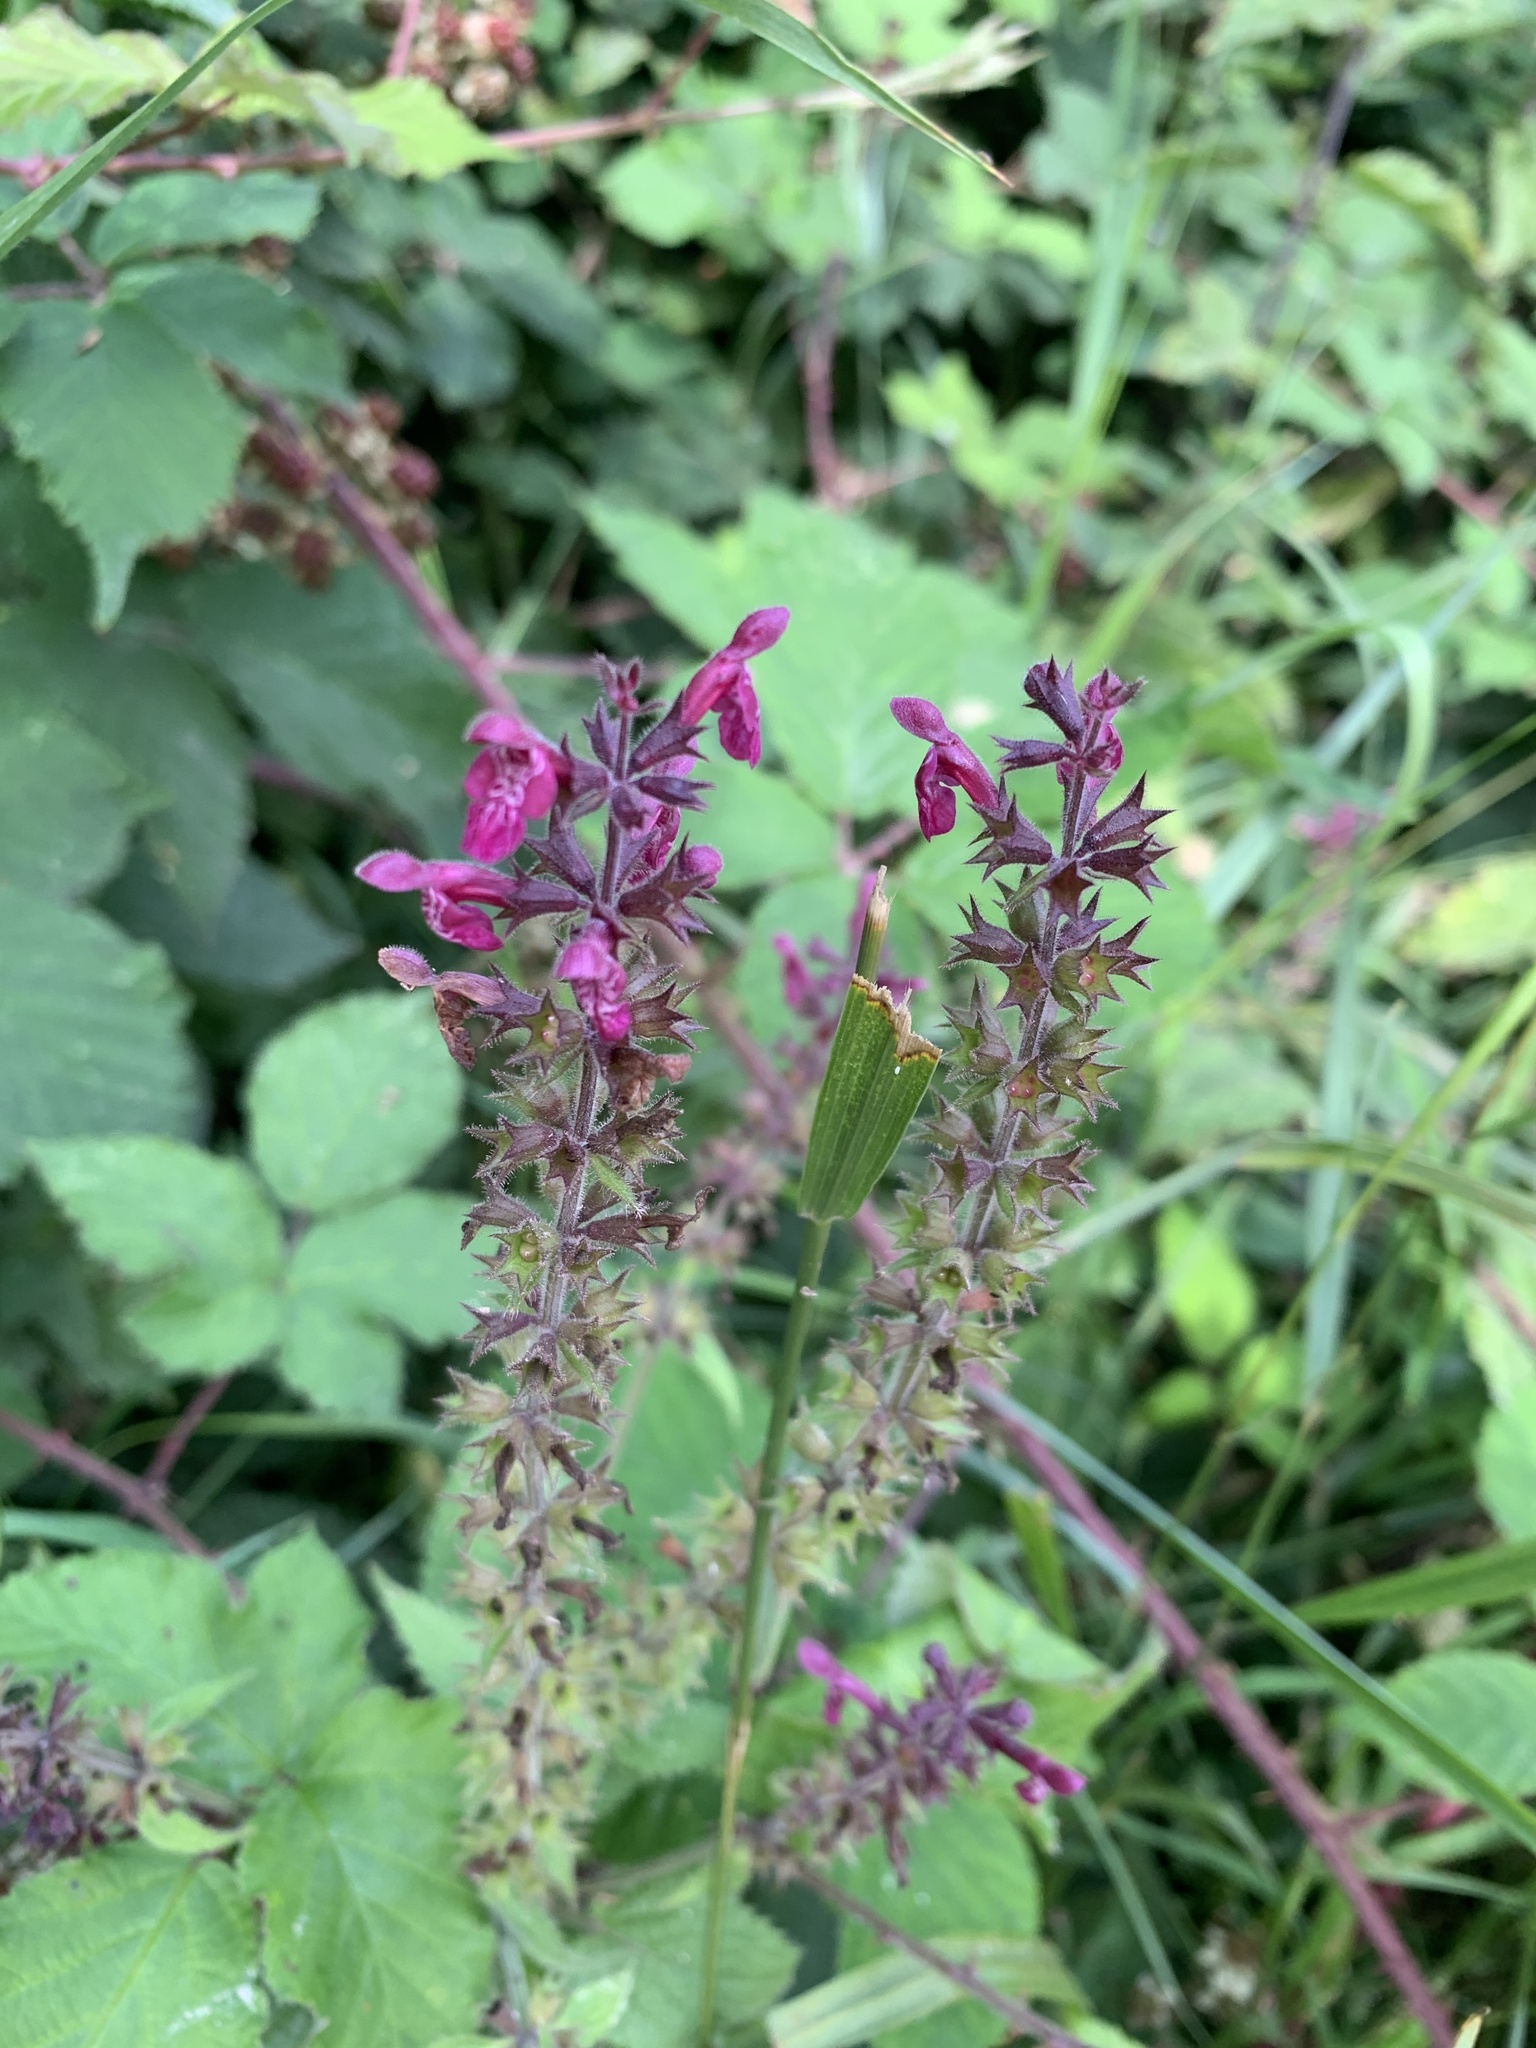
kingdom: Plantae
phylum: Tracheophyta
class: Magnoliopsida
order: Lamiales
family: Lamiaceae
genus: Stachys
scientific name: Stachys sylvatica
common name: Hedge woundwort
